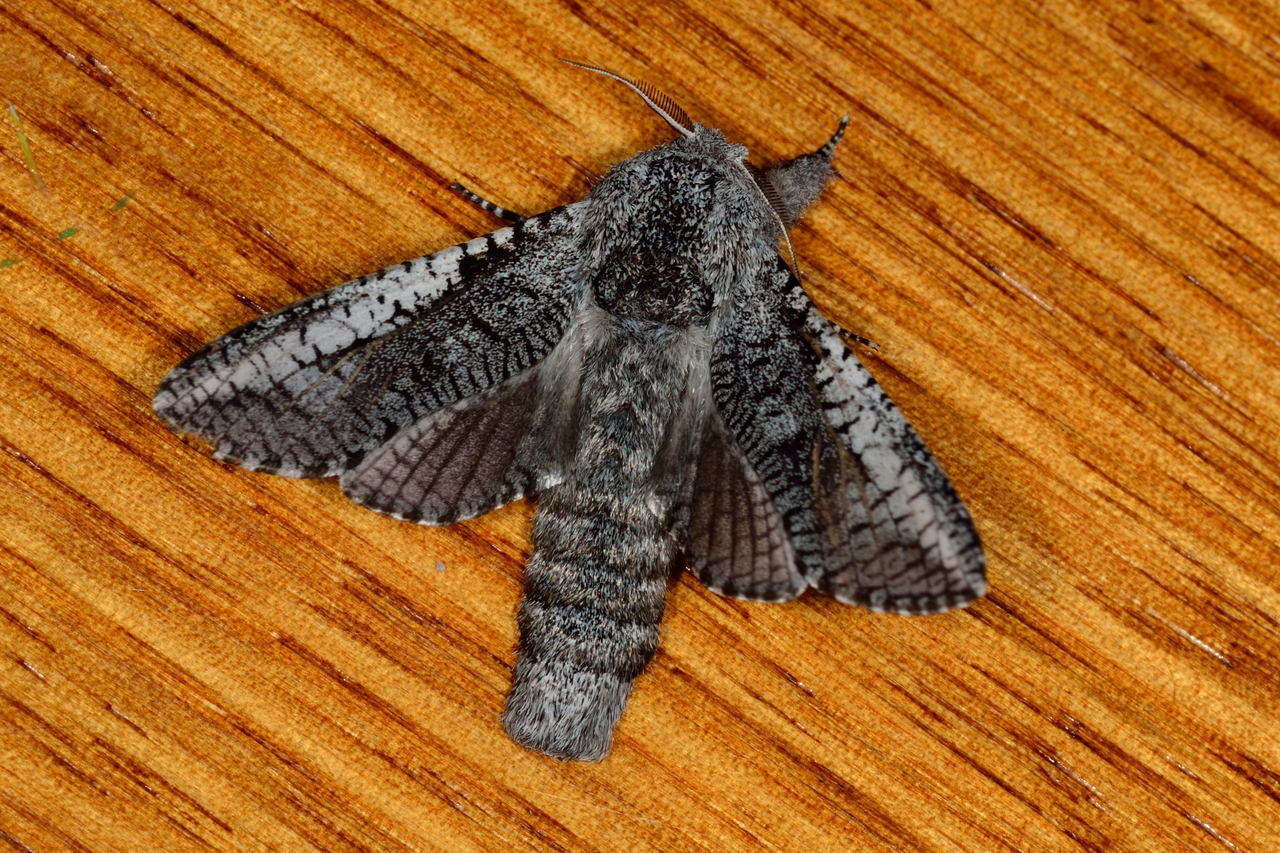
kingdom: Animalia
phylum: Arthropoda
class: Insecta
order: Lepidoptera
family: Cossidae
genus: Endoxyla
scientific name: Endoxyla secta
